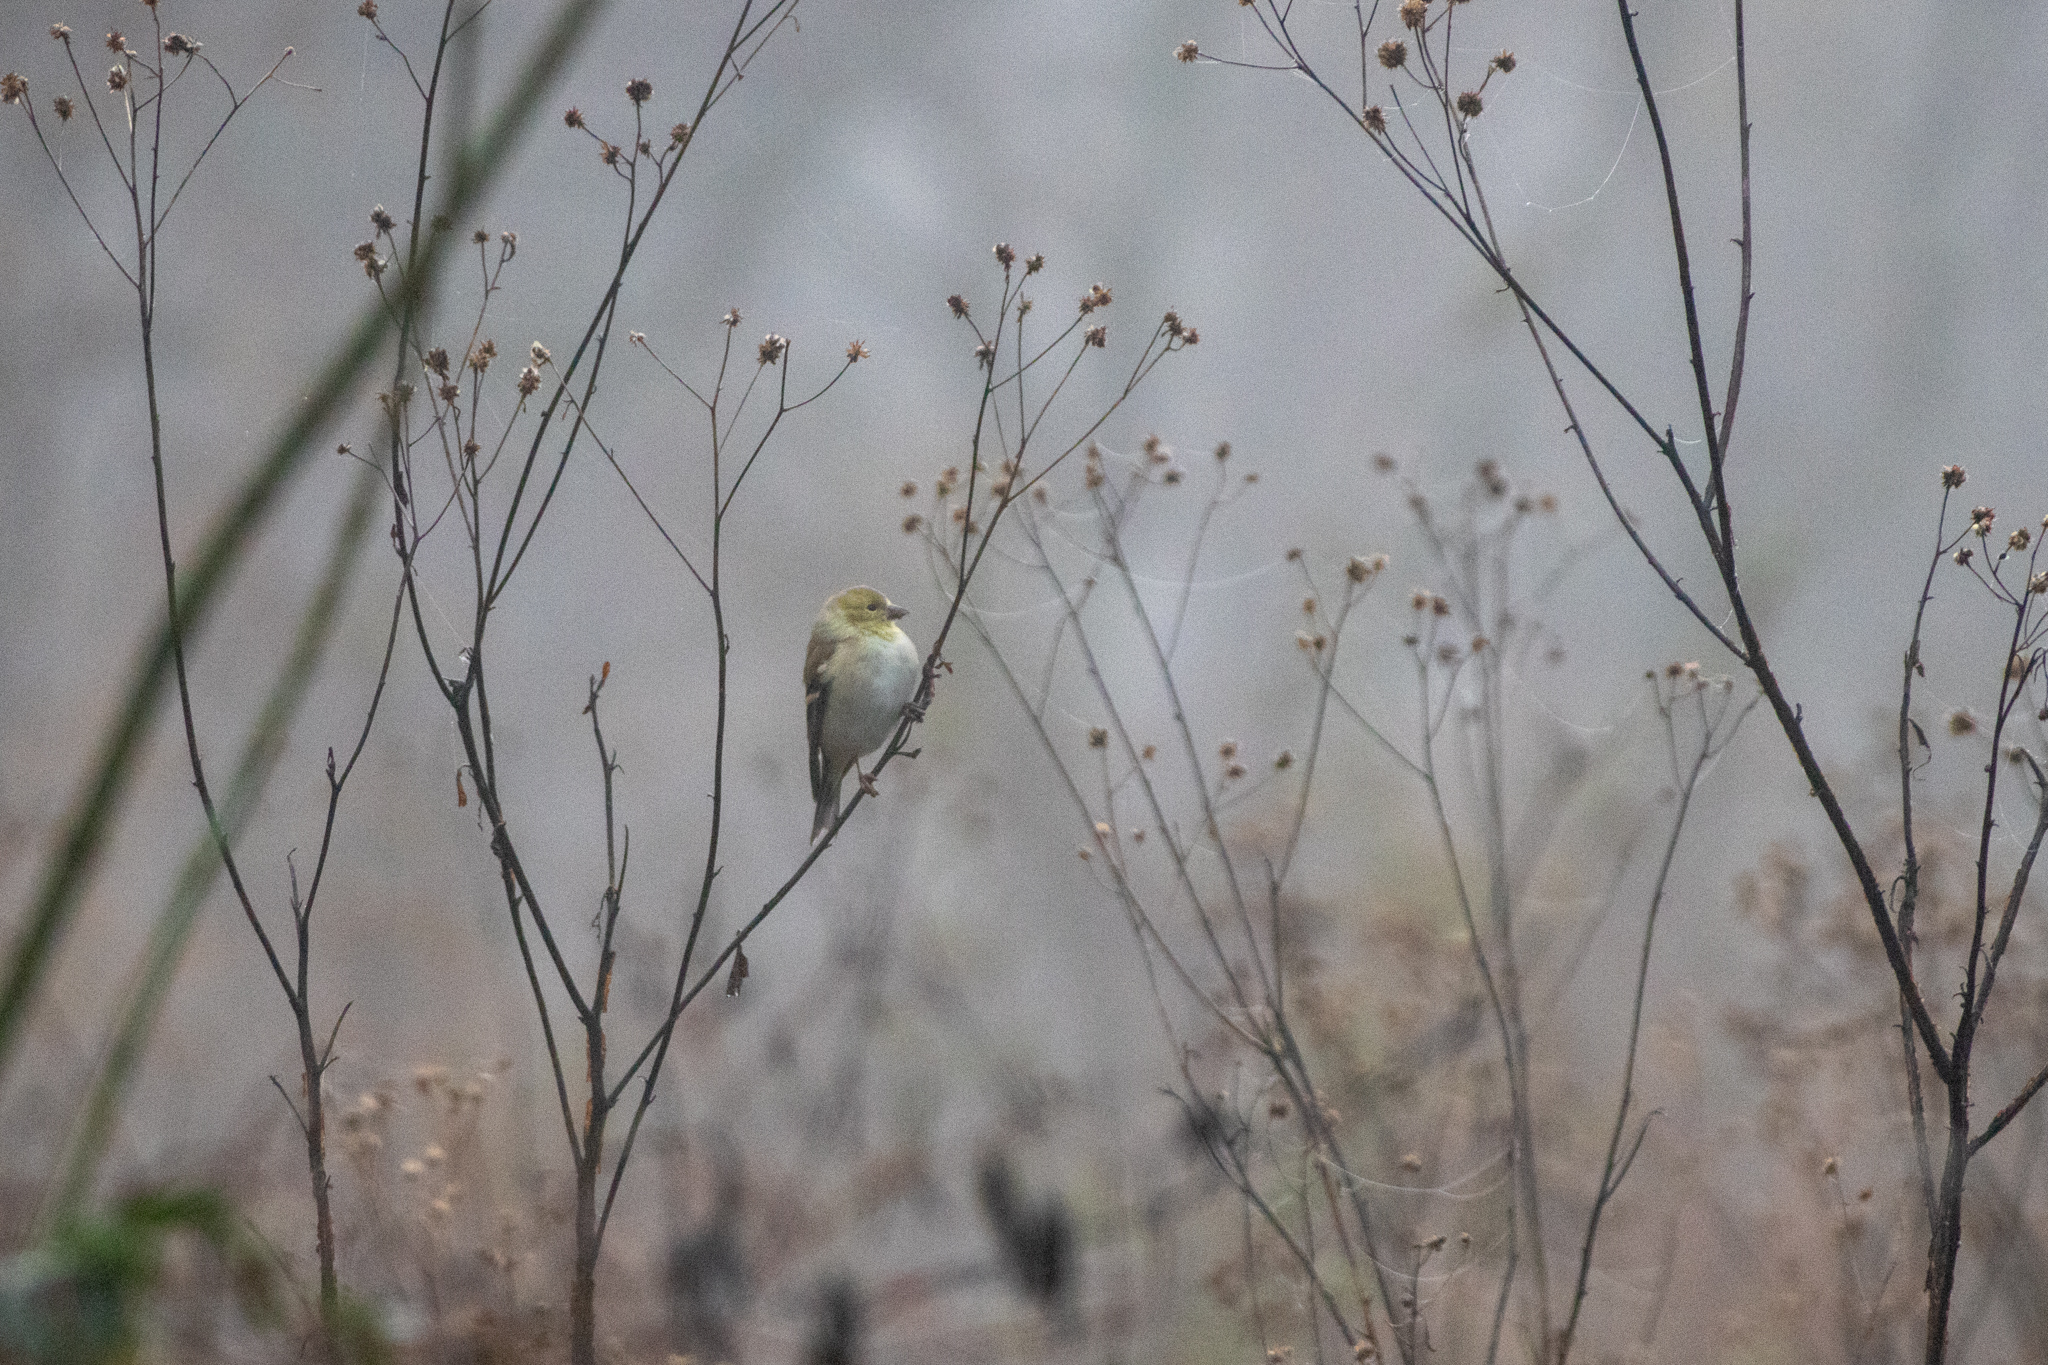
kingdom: Animalia
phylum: Chordata
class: Aves
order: Passeriformes
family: Fringillidae
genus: Spinus
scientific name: Spinus tristis
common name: American goldfinch
